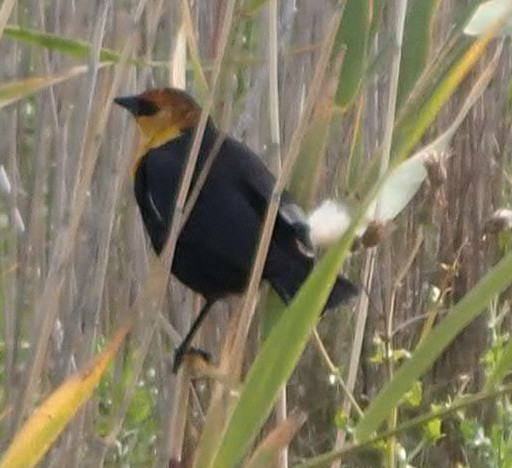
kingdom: Animalia
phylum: Chordata
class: Aves
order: Passeriformes
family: Icteridae
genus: Xanthocephalus
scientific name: Xanthocephalus xanthocephalus
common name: Yellow-headed blackbird
